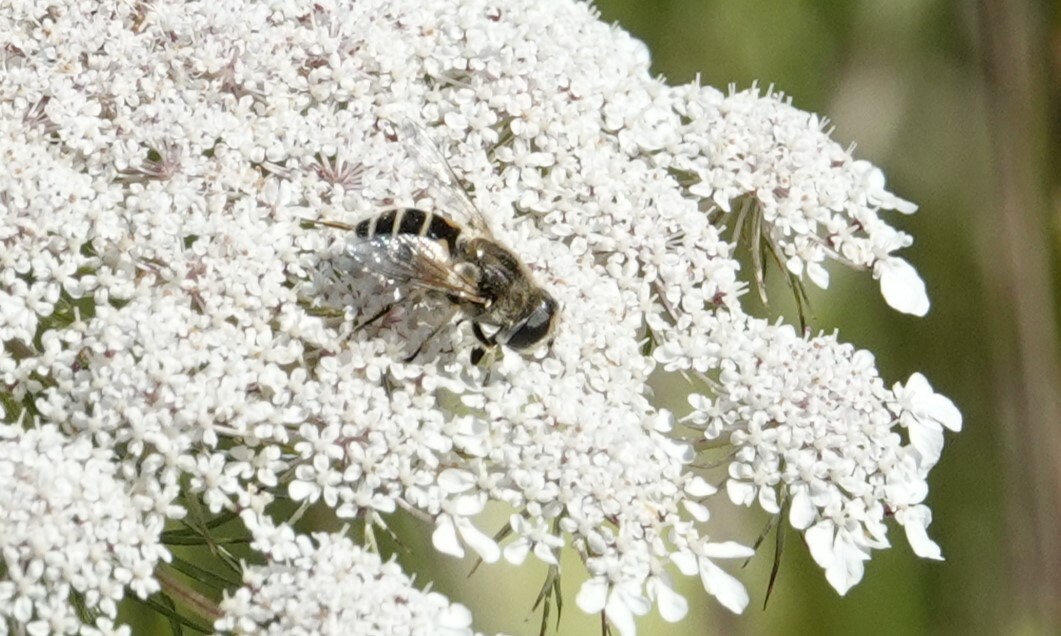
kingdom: Animalia
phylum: Arthropoda
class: Insecta
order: Diptera
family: Syrphidae
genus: Eristalis
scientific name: Eristalis arbustorum
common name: Hover fly
